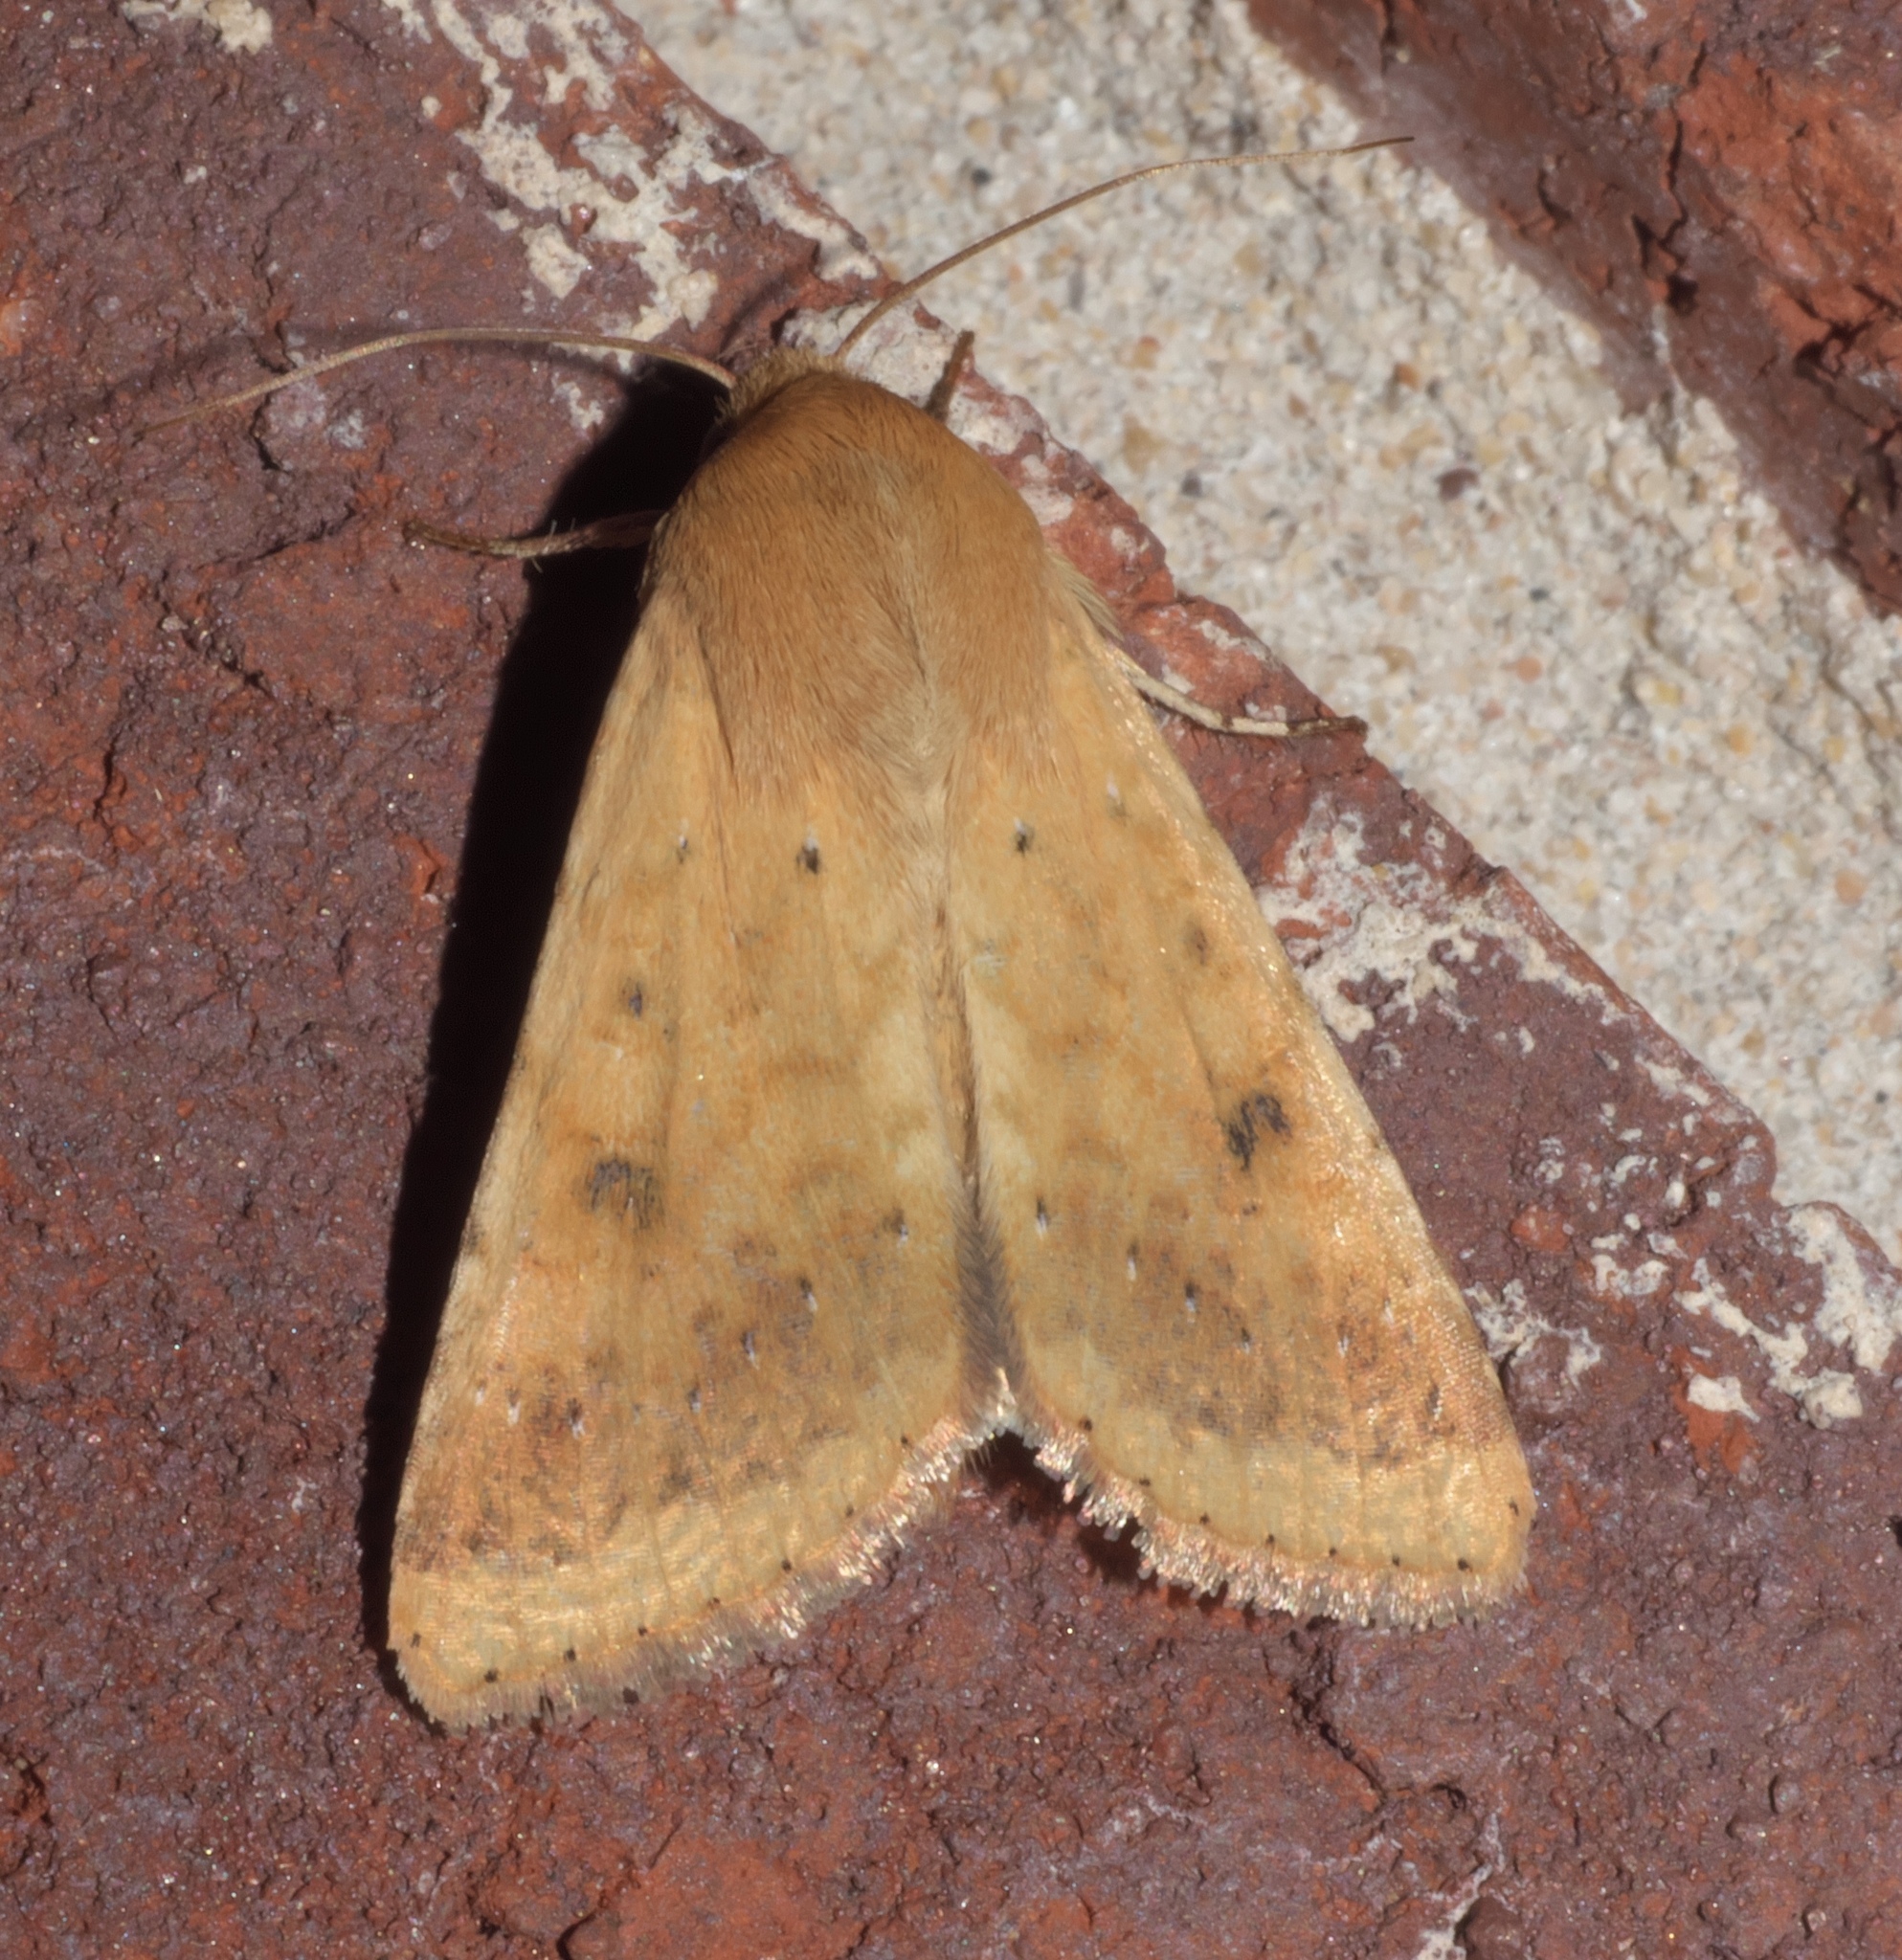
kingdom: Animalia
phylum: Arthropoda
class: Insecta
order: Lepidoptera
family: Noctuidae
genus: Helicoverpa
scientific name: Helicoverpa zea
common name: Bollworm
